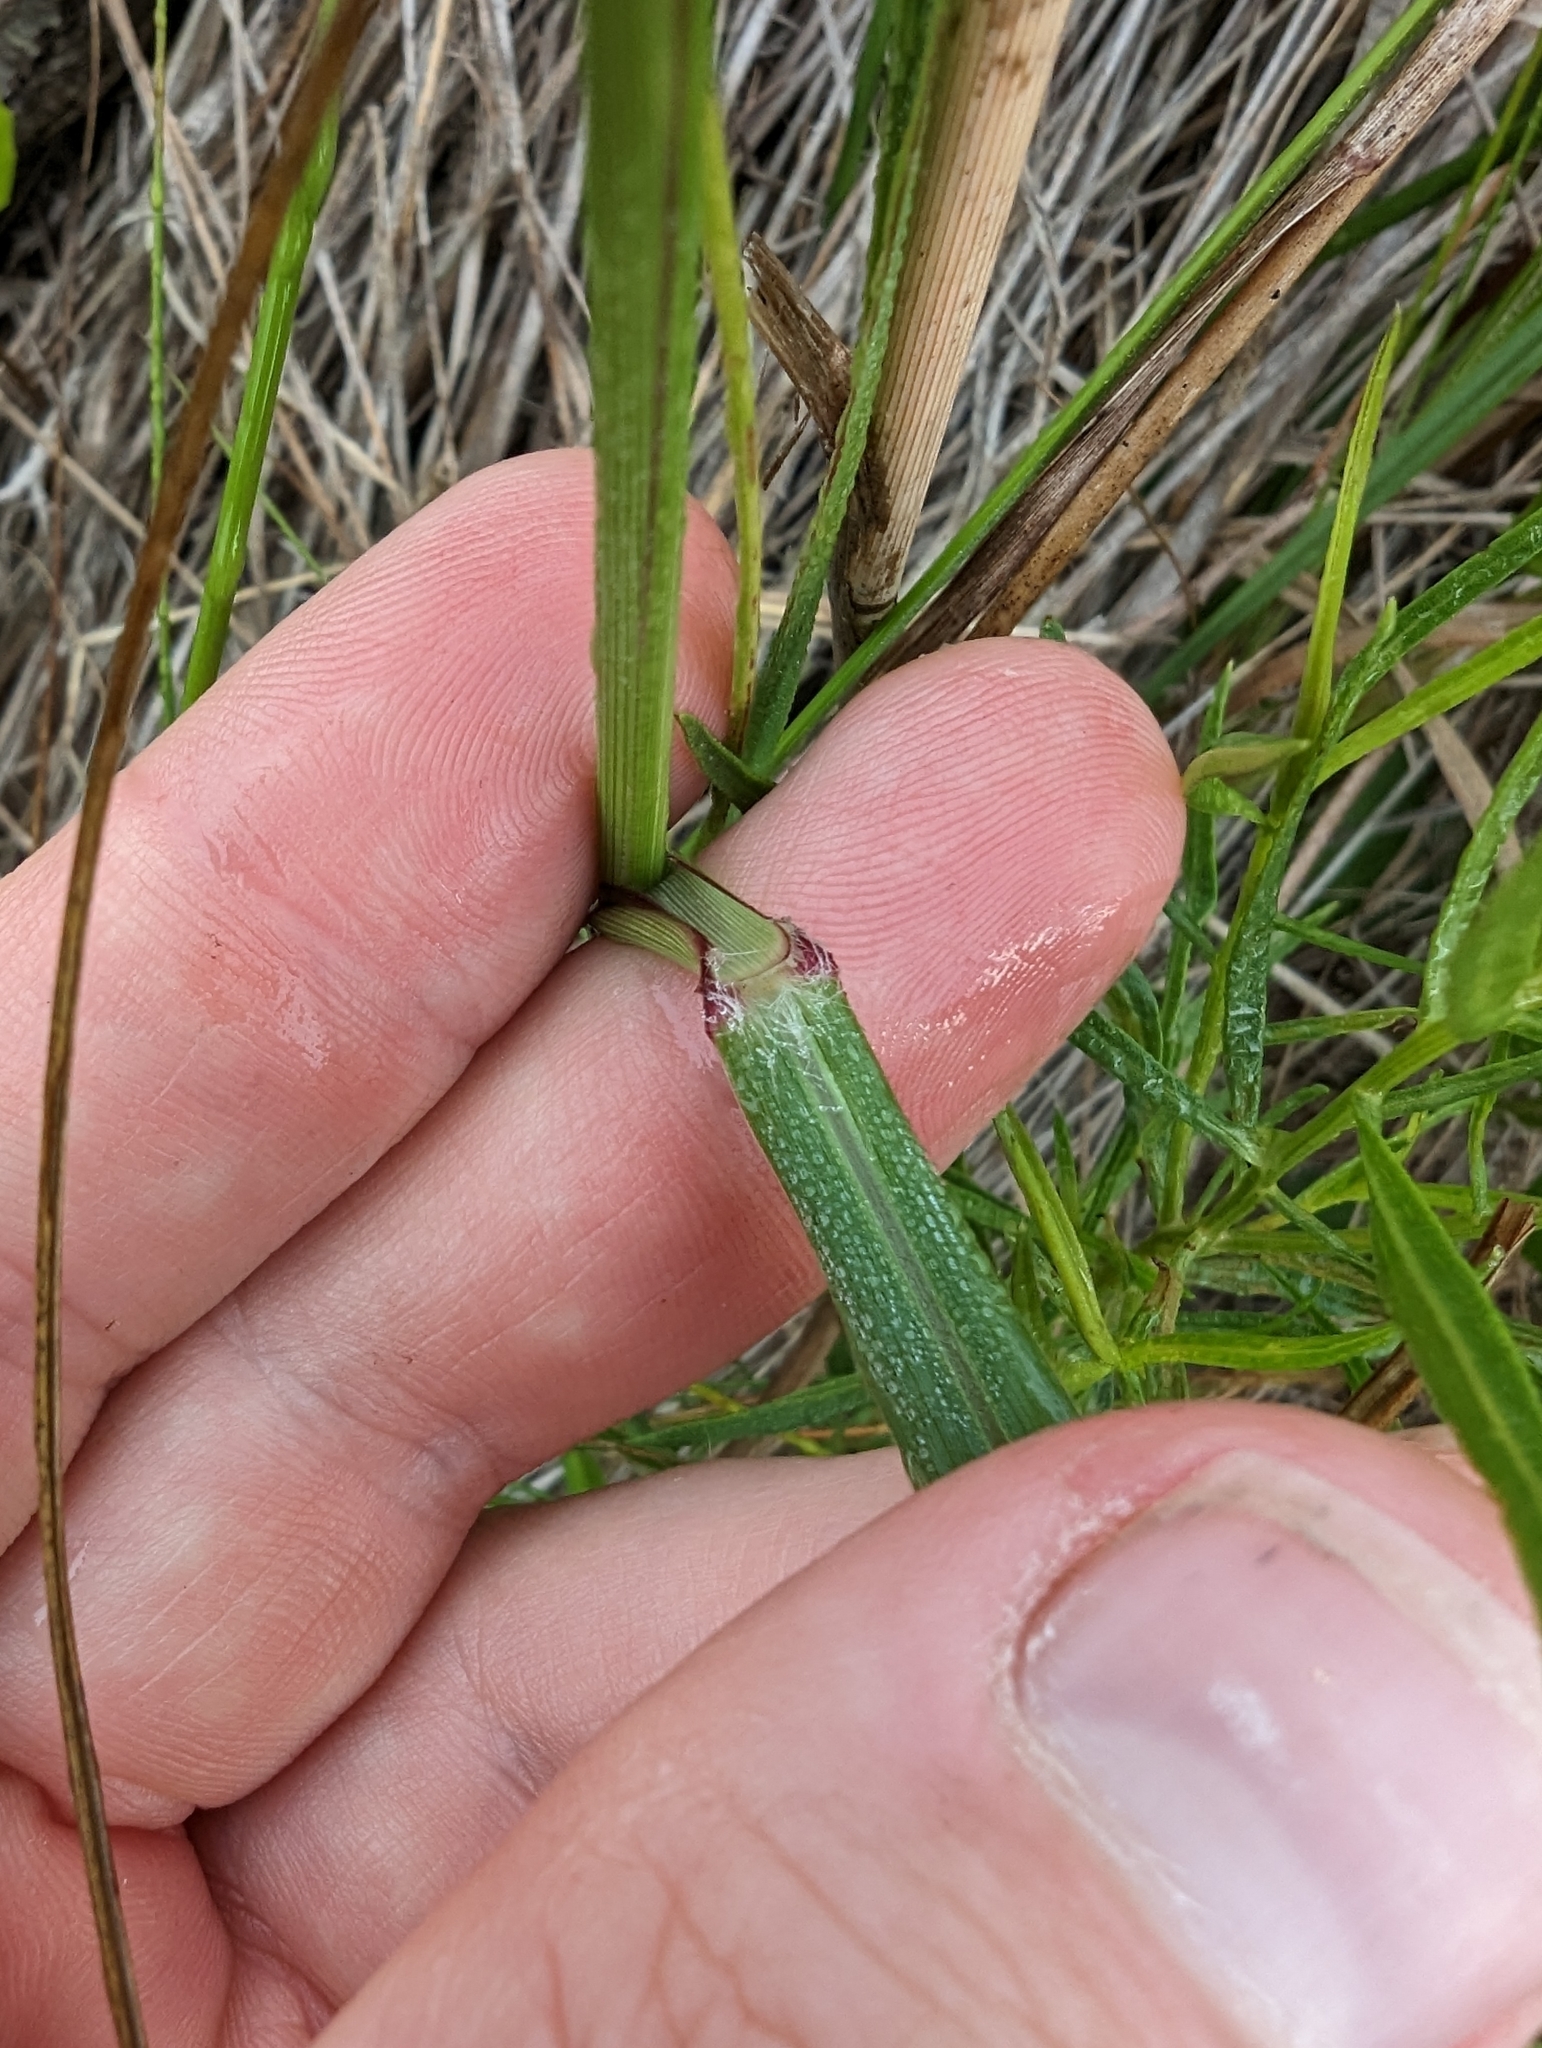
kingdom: Plantae
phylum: Tracheophyta
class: Liliopsida
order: Poales
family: Poaceae
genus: Panicum
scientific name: Panicum virgatum
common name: Switchgrass
